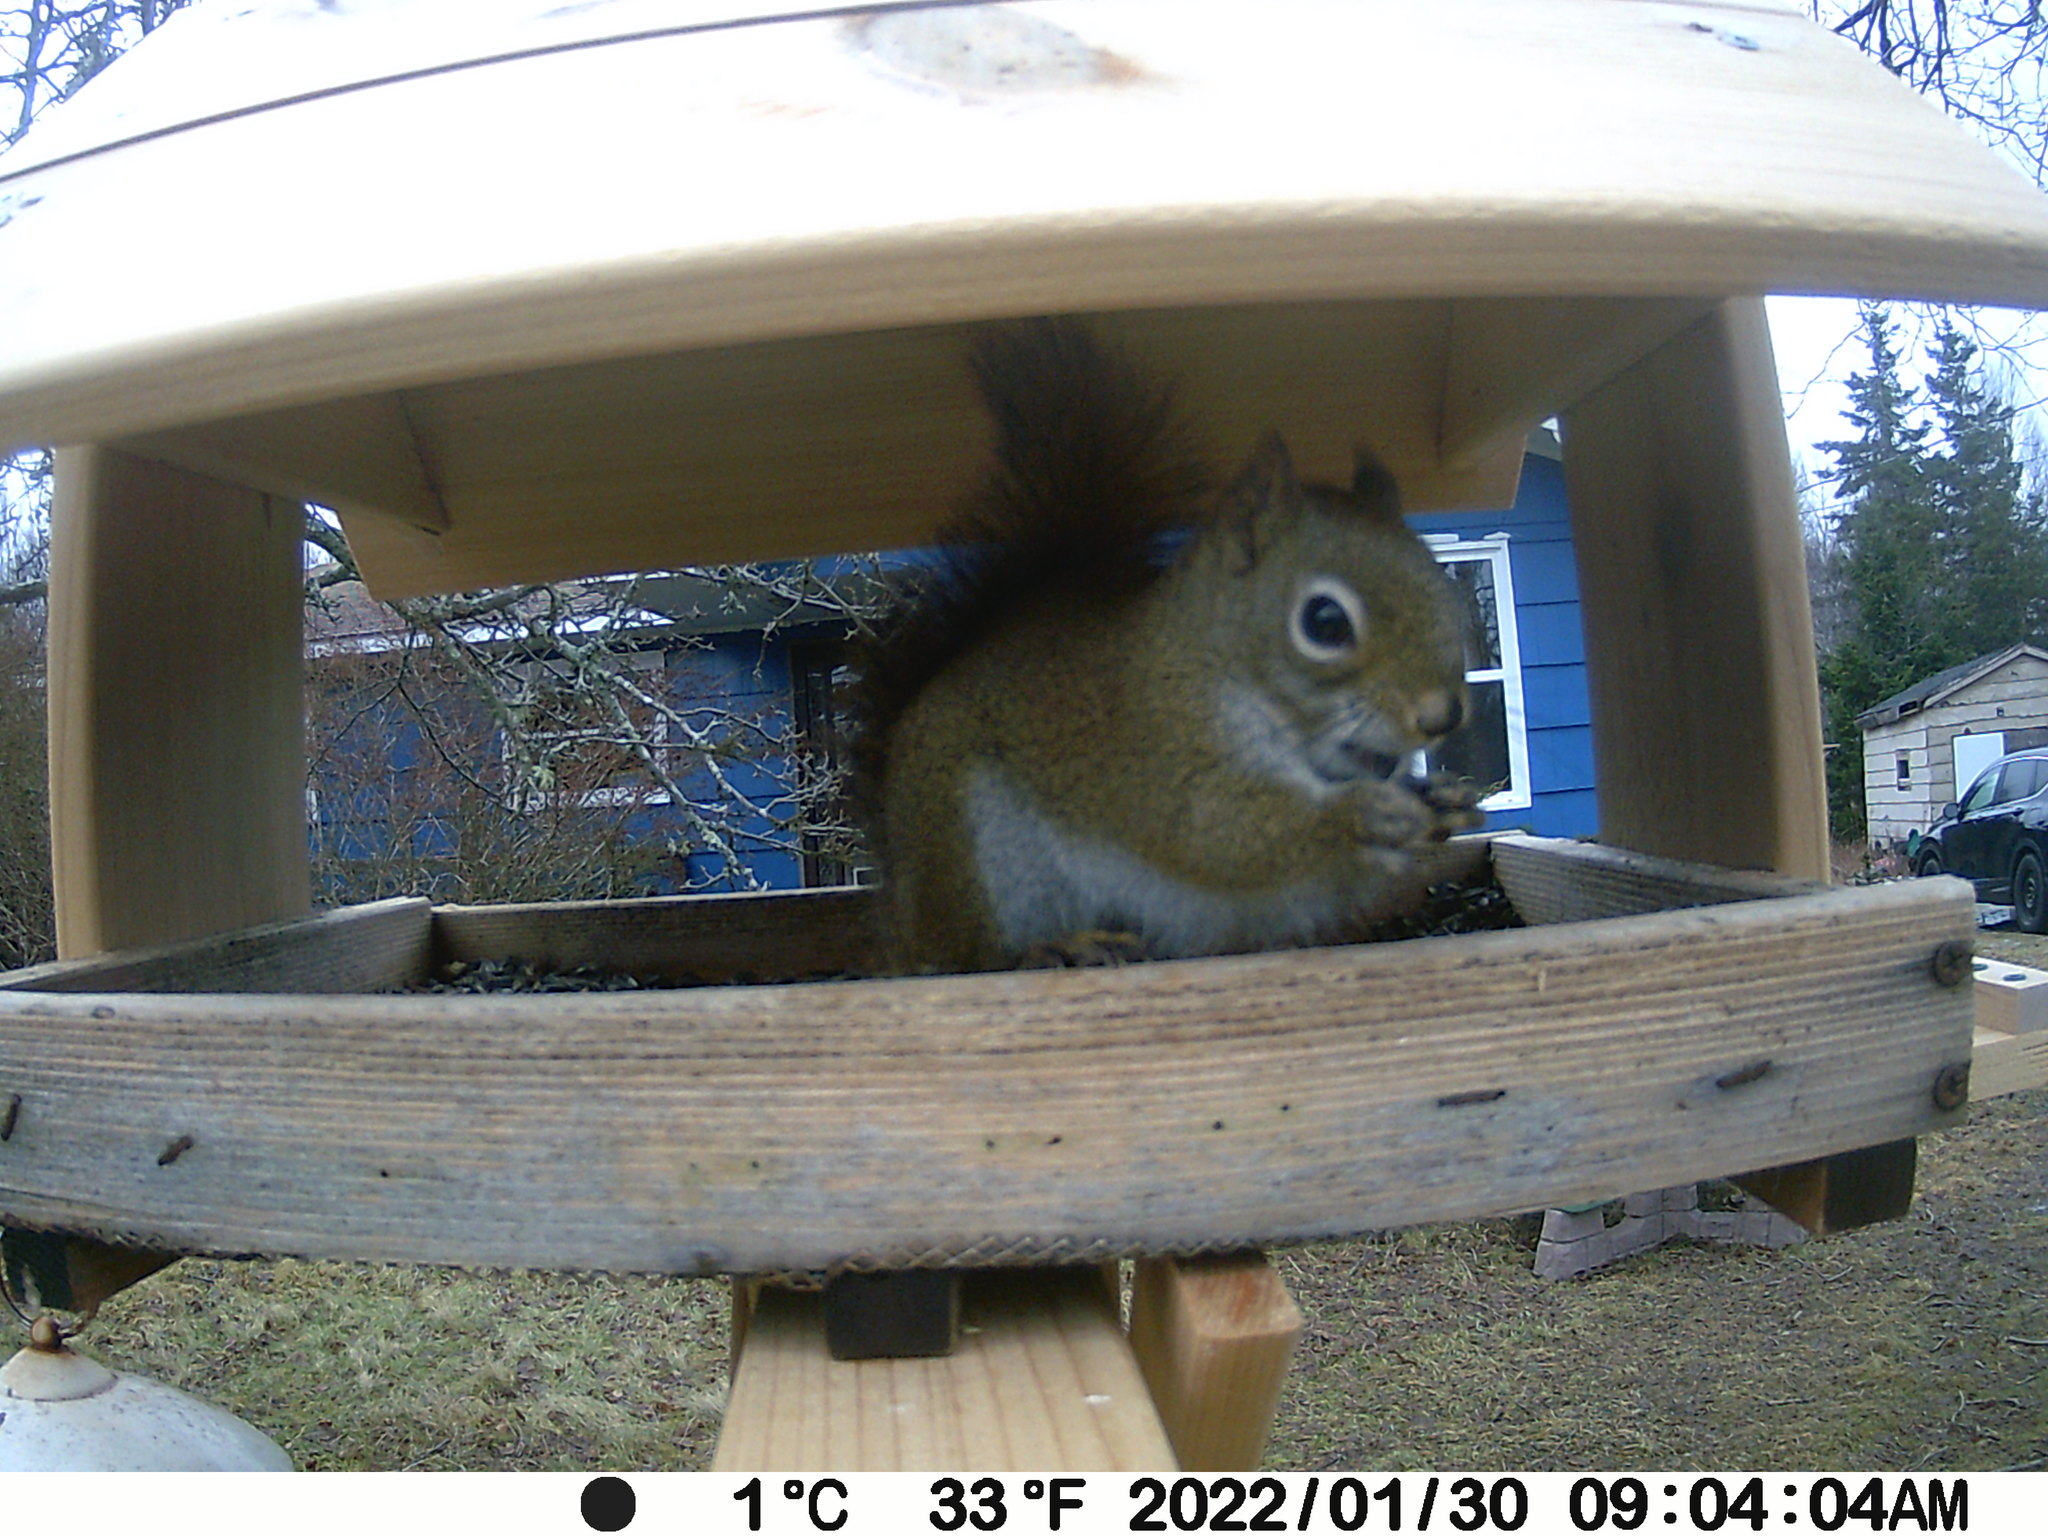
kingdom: Animalia
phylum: Chordata
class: Mammalia
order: Rodentia
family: Sciuridae
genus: Tamiasciurus
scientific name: Tamiasciurus hudsonicus
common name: Red squirrel
